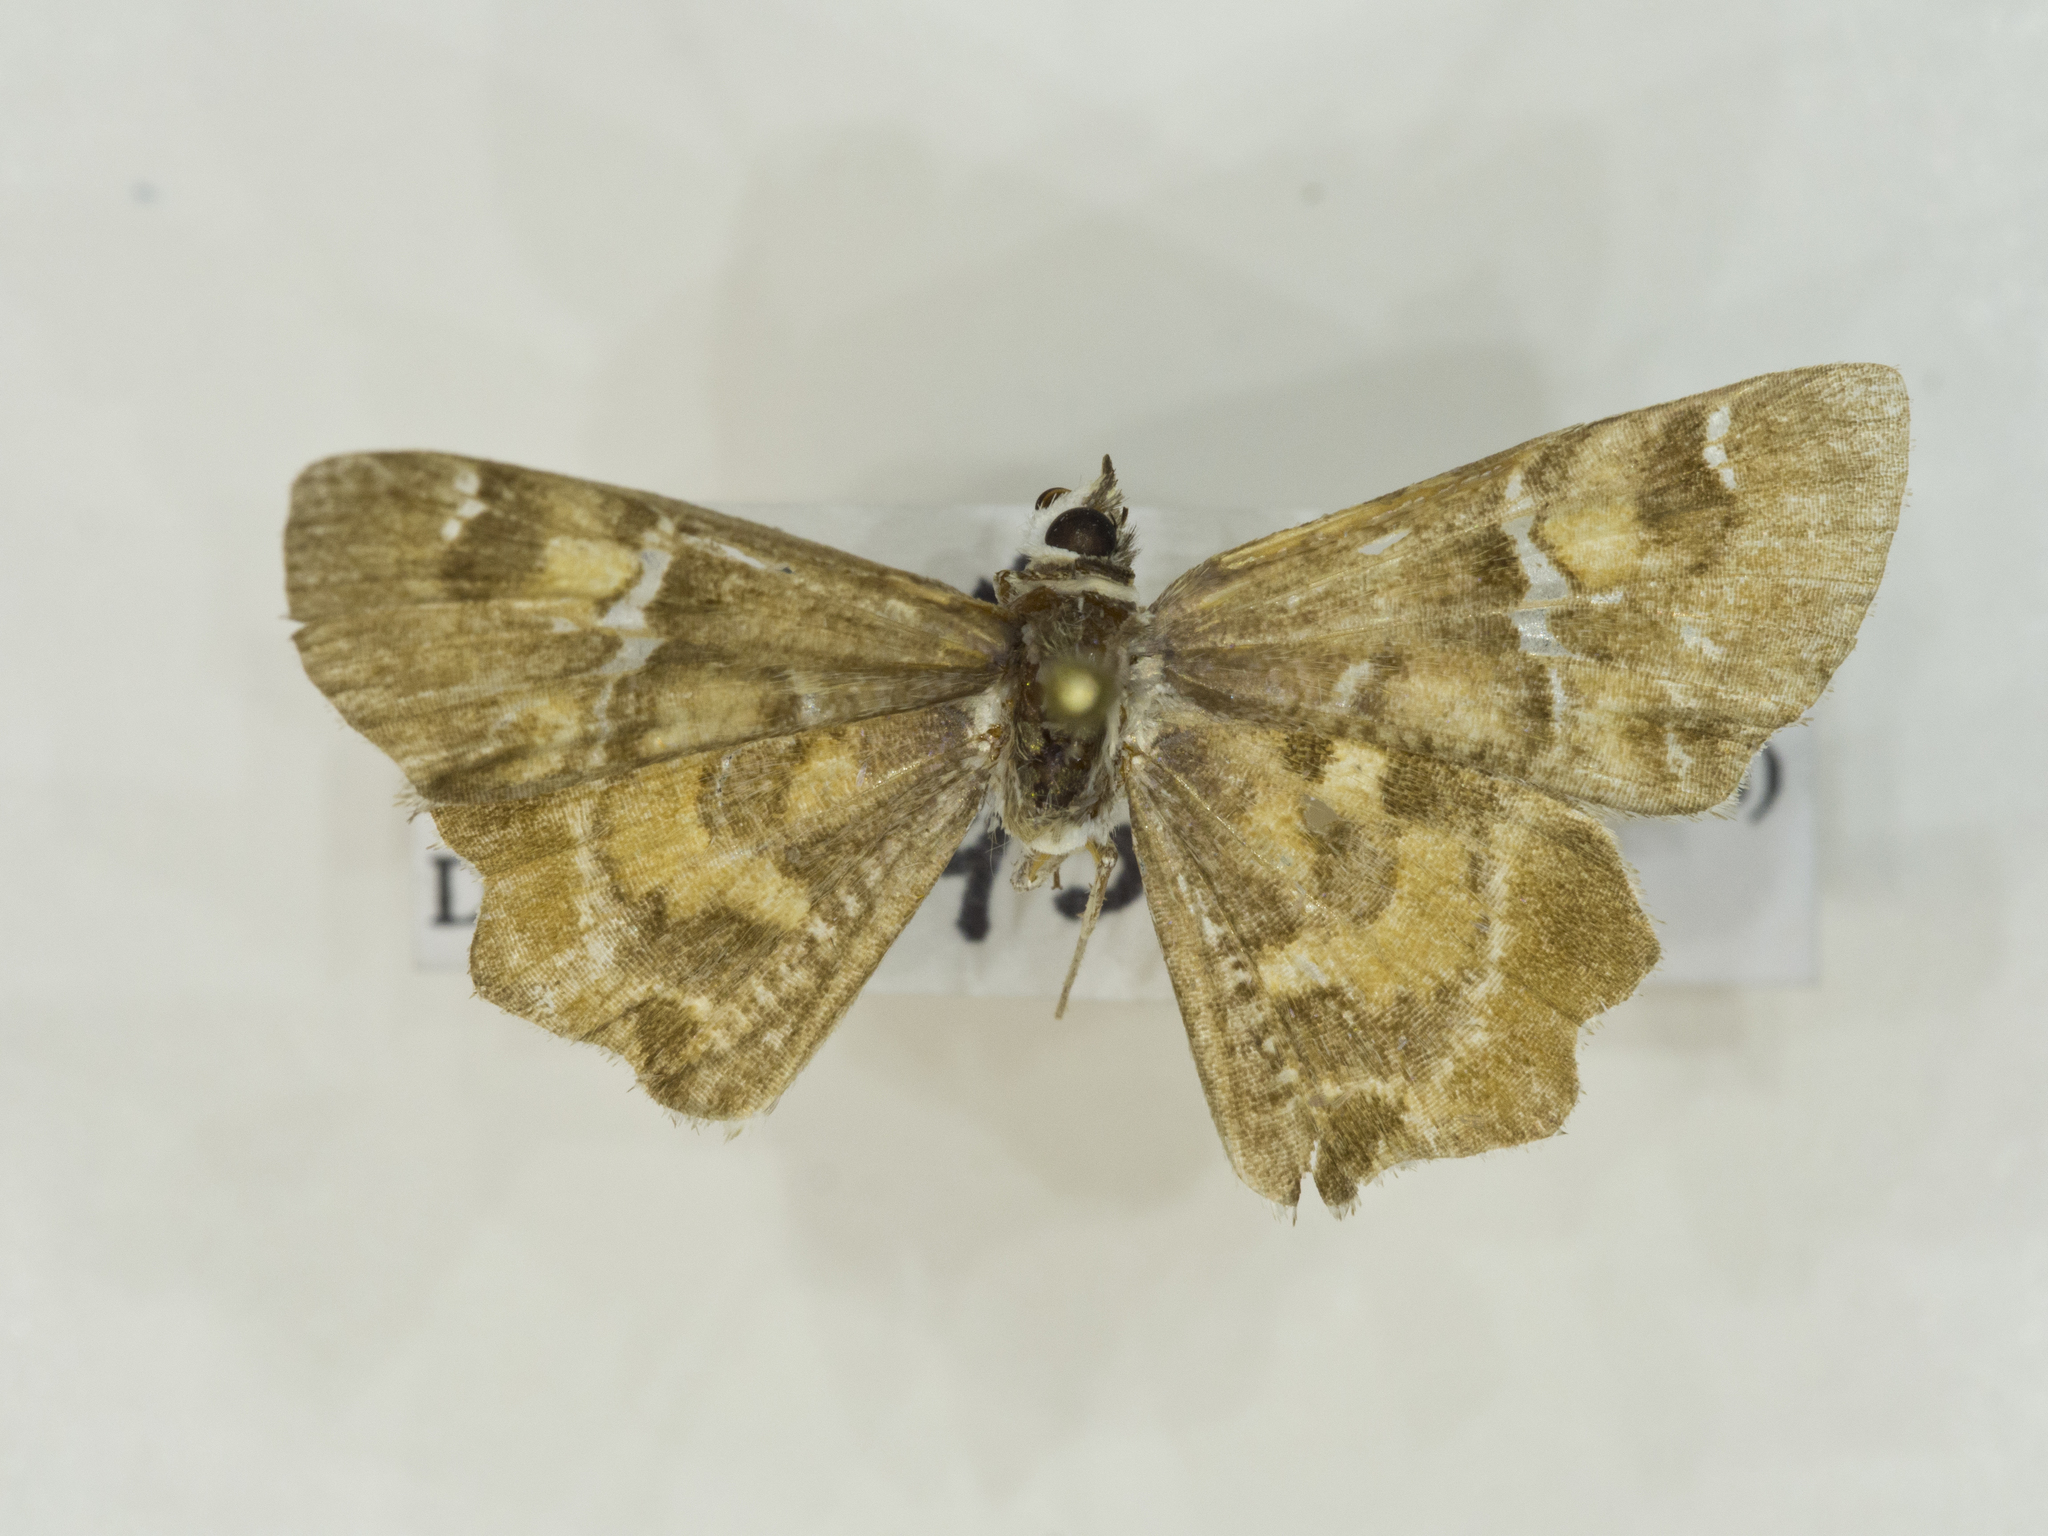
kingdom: Animalia
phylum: Arthropoda
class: Insecta
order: Lepidoptera
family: Hesperiidae
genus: Systasea
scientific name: Systasea zampa
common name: Arizona powdered-skipper
